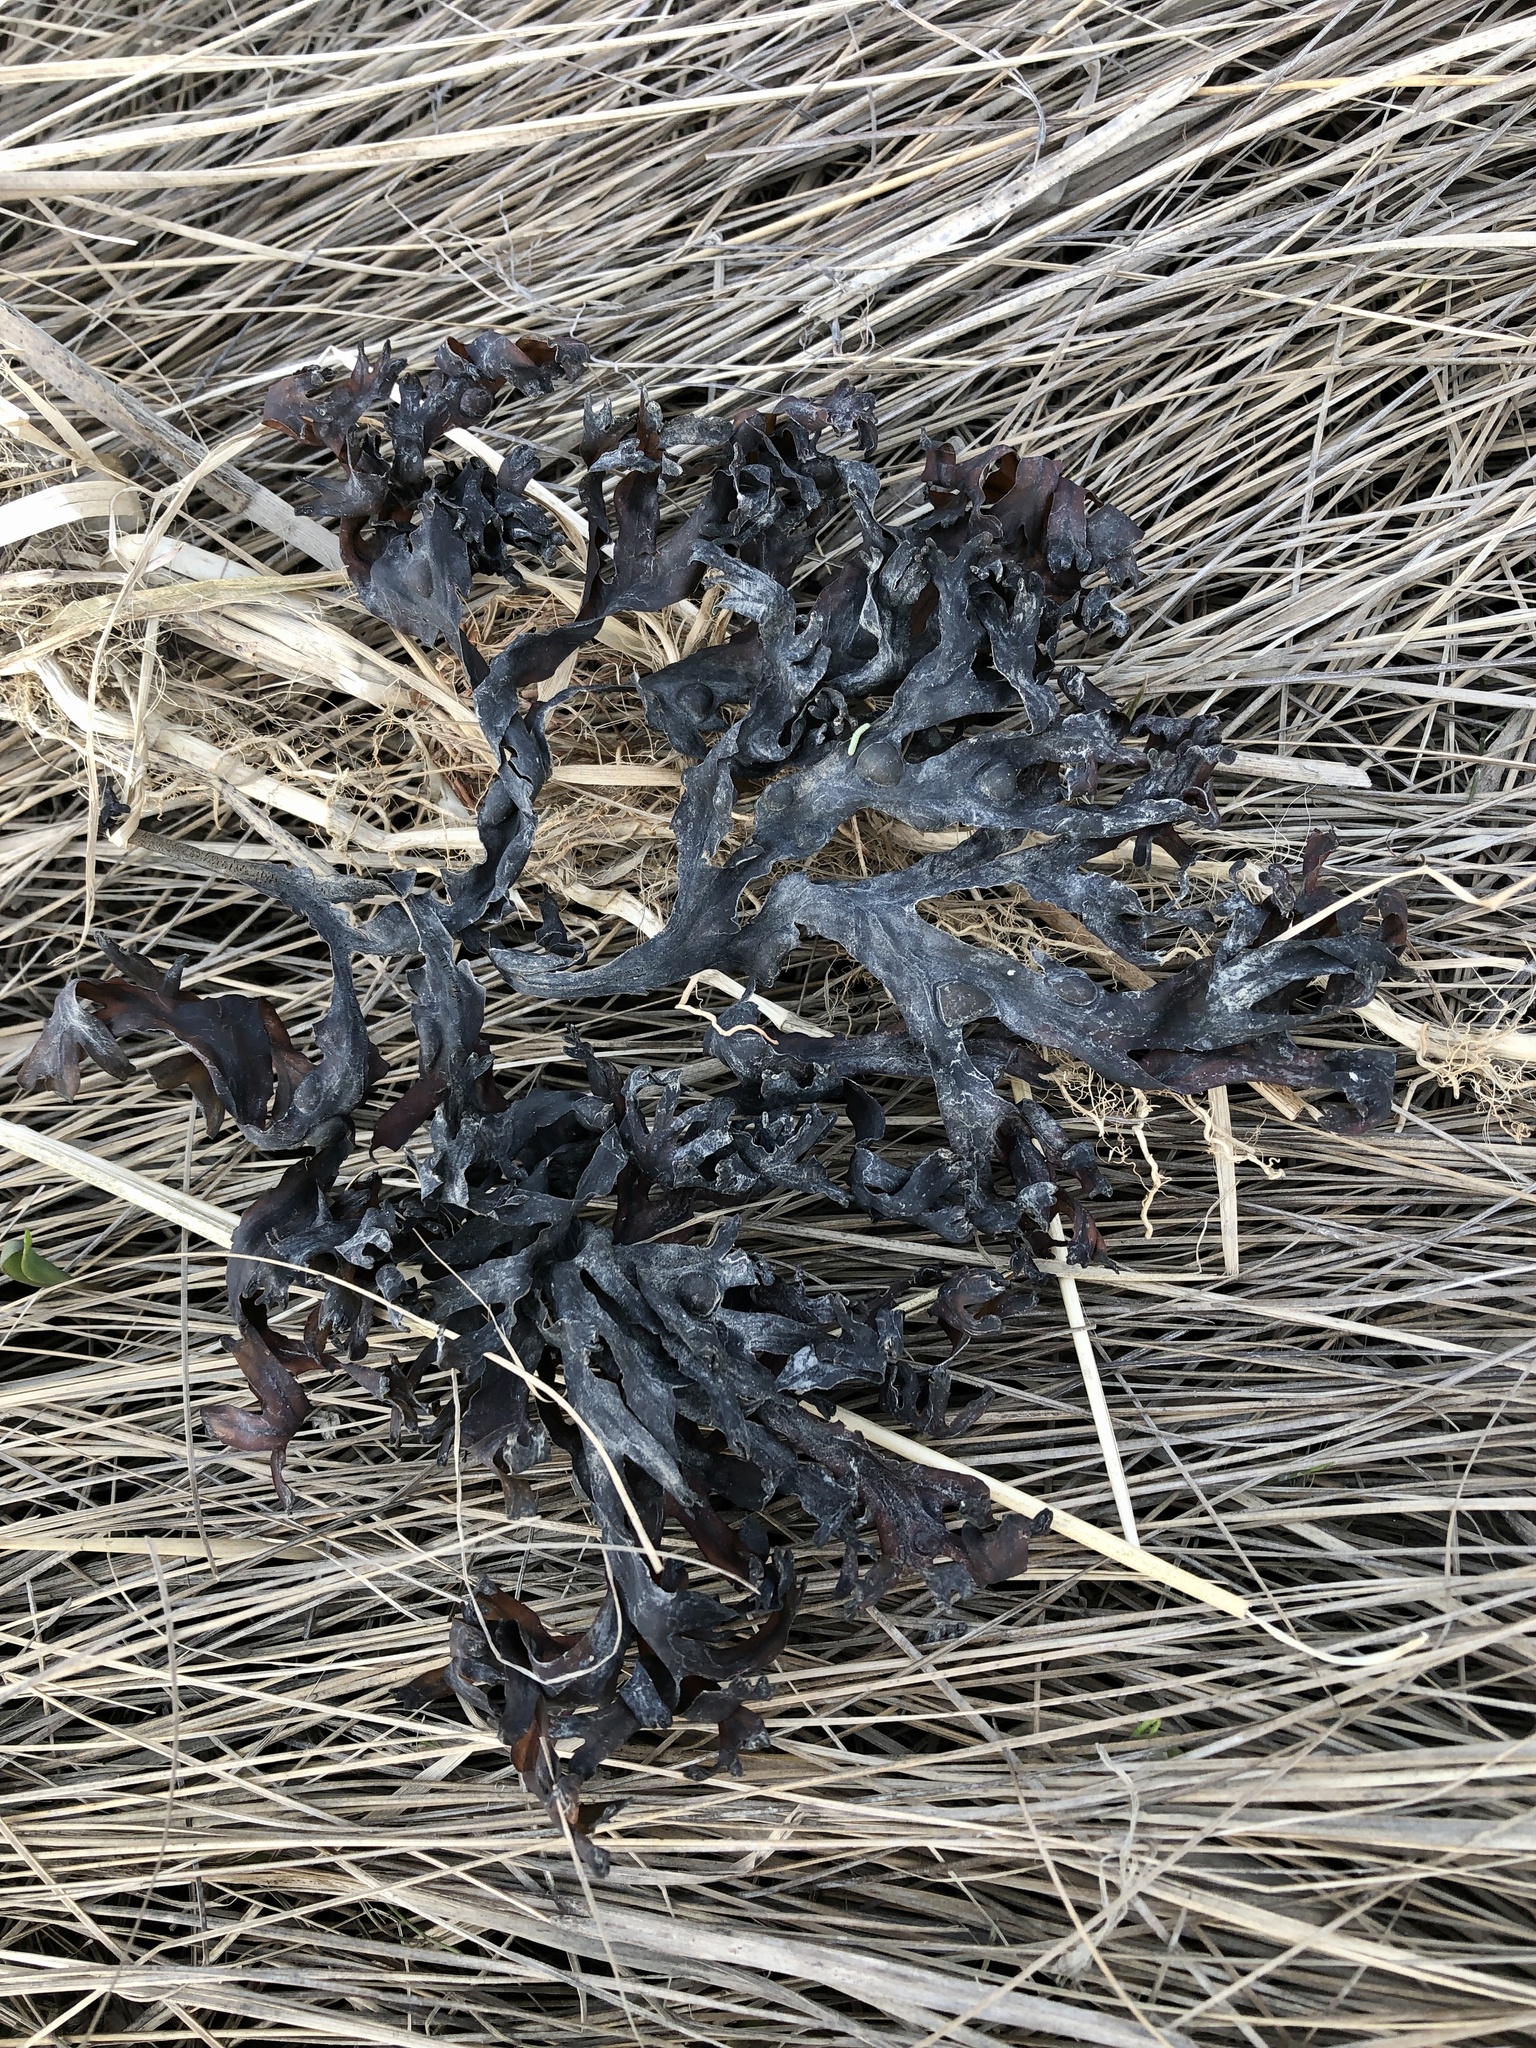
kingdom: Chromista
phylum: Ochrophyta
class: Phaeophyceae
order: Fucales
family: Fucaceae
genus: Fucus
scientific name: Fucus vesiculosus
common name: Bladder wrack
